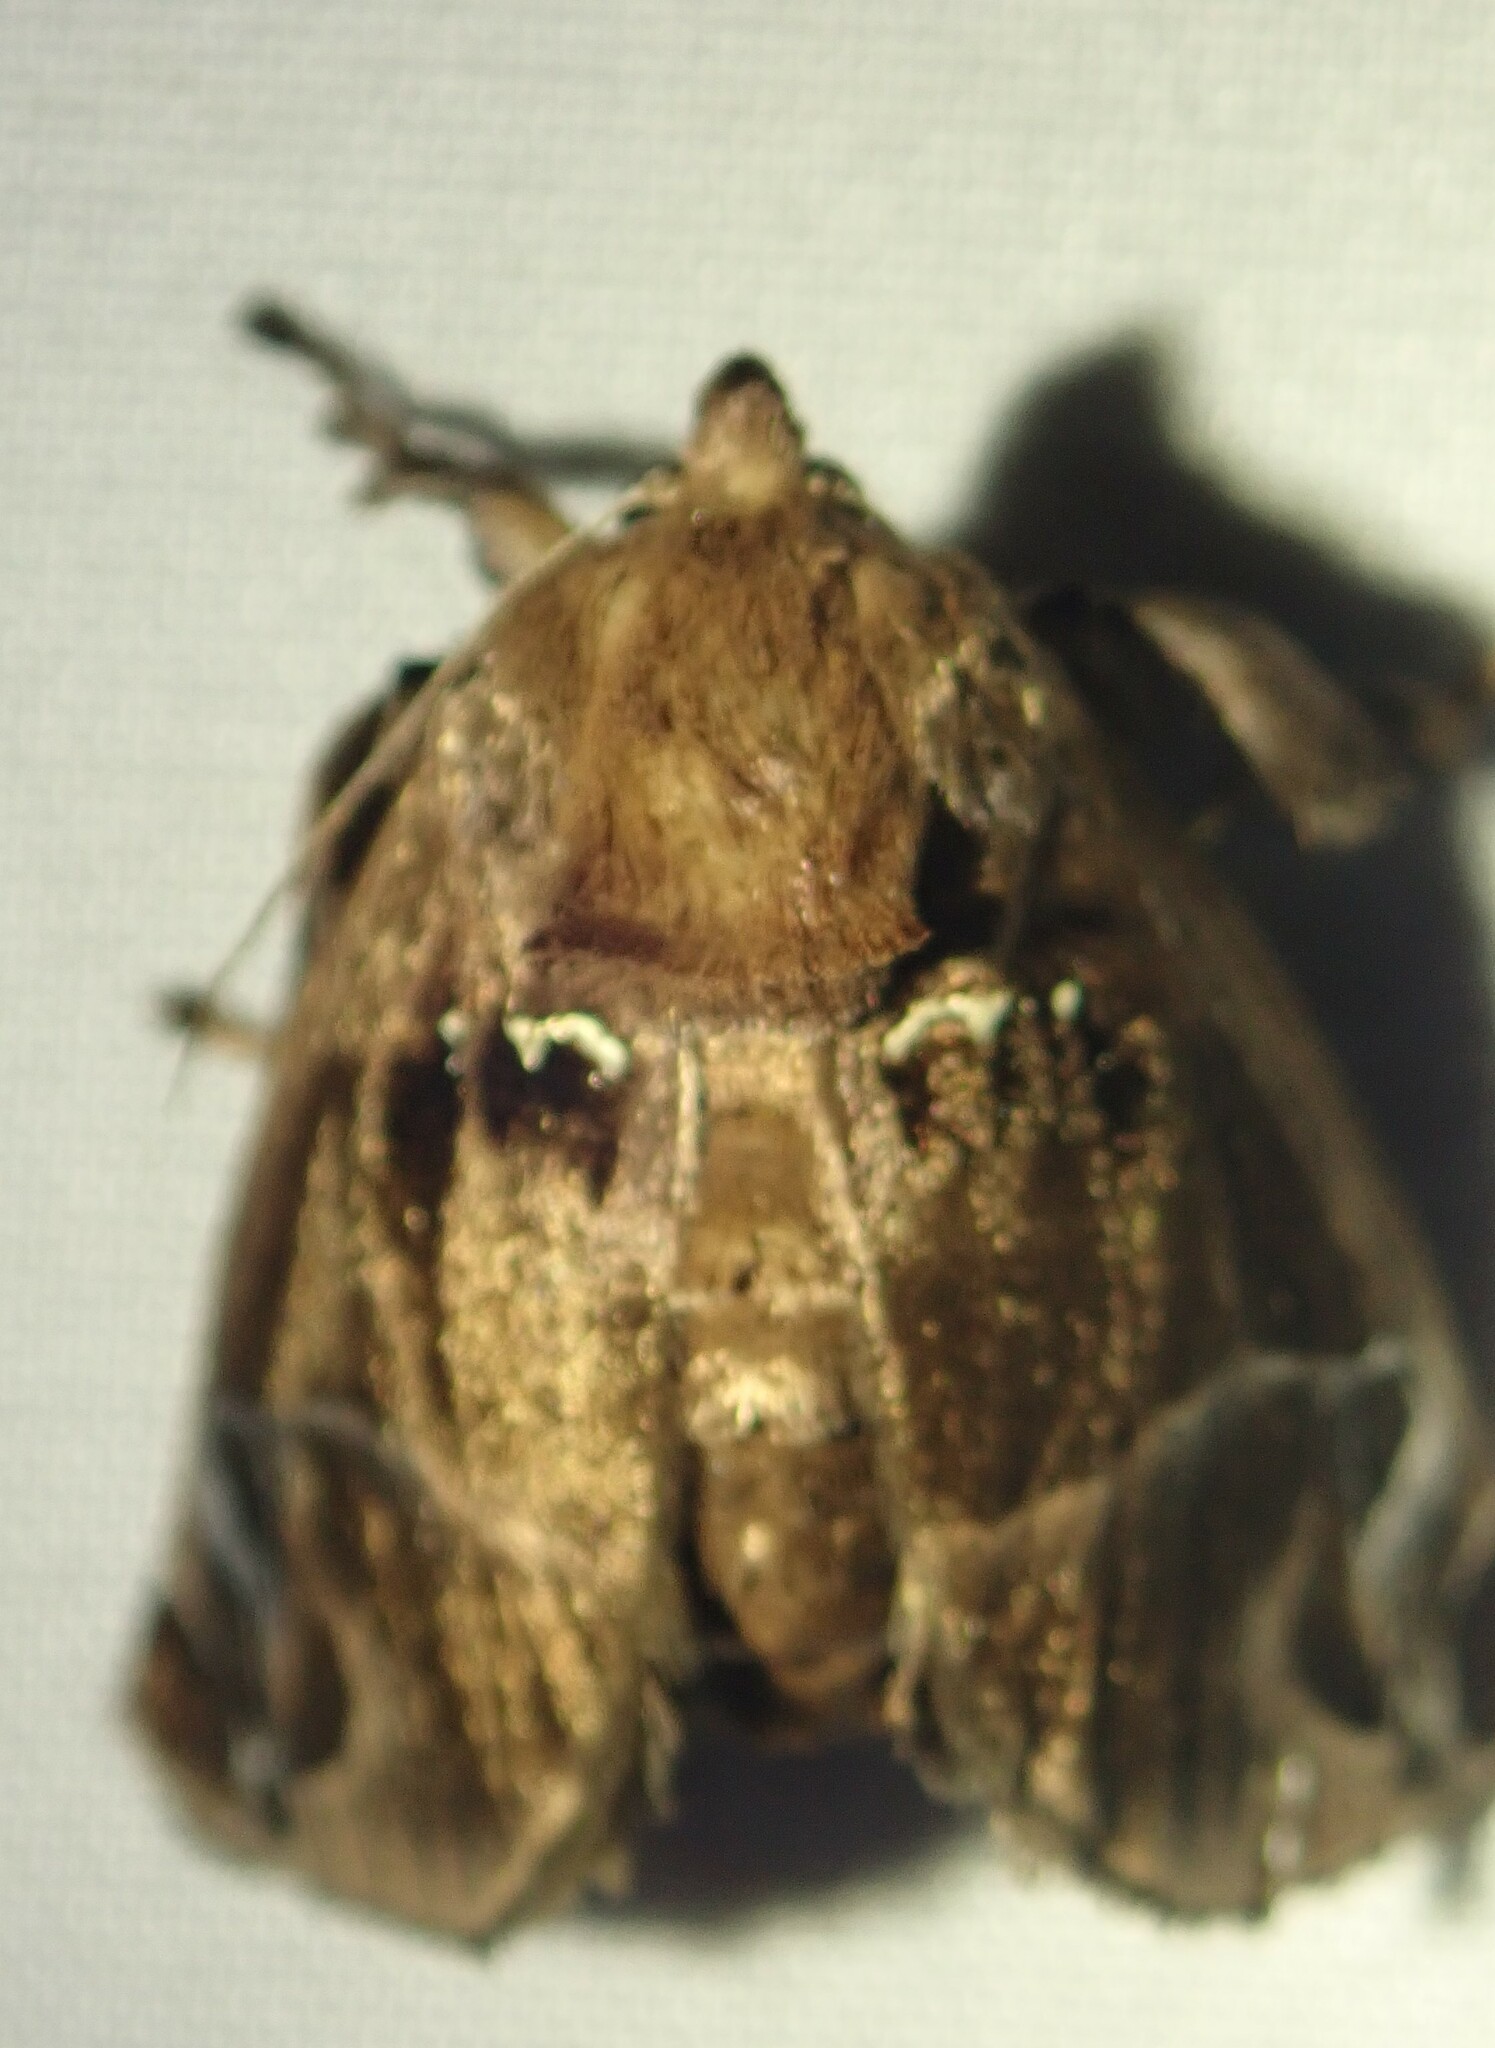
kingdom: Animalia
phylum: Arthropoda
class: Insecta
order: Lepidoptera
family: Limacodidae
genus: Semyra
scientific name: Semyra irena
